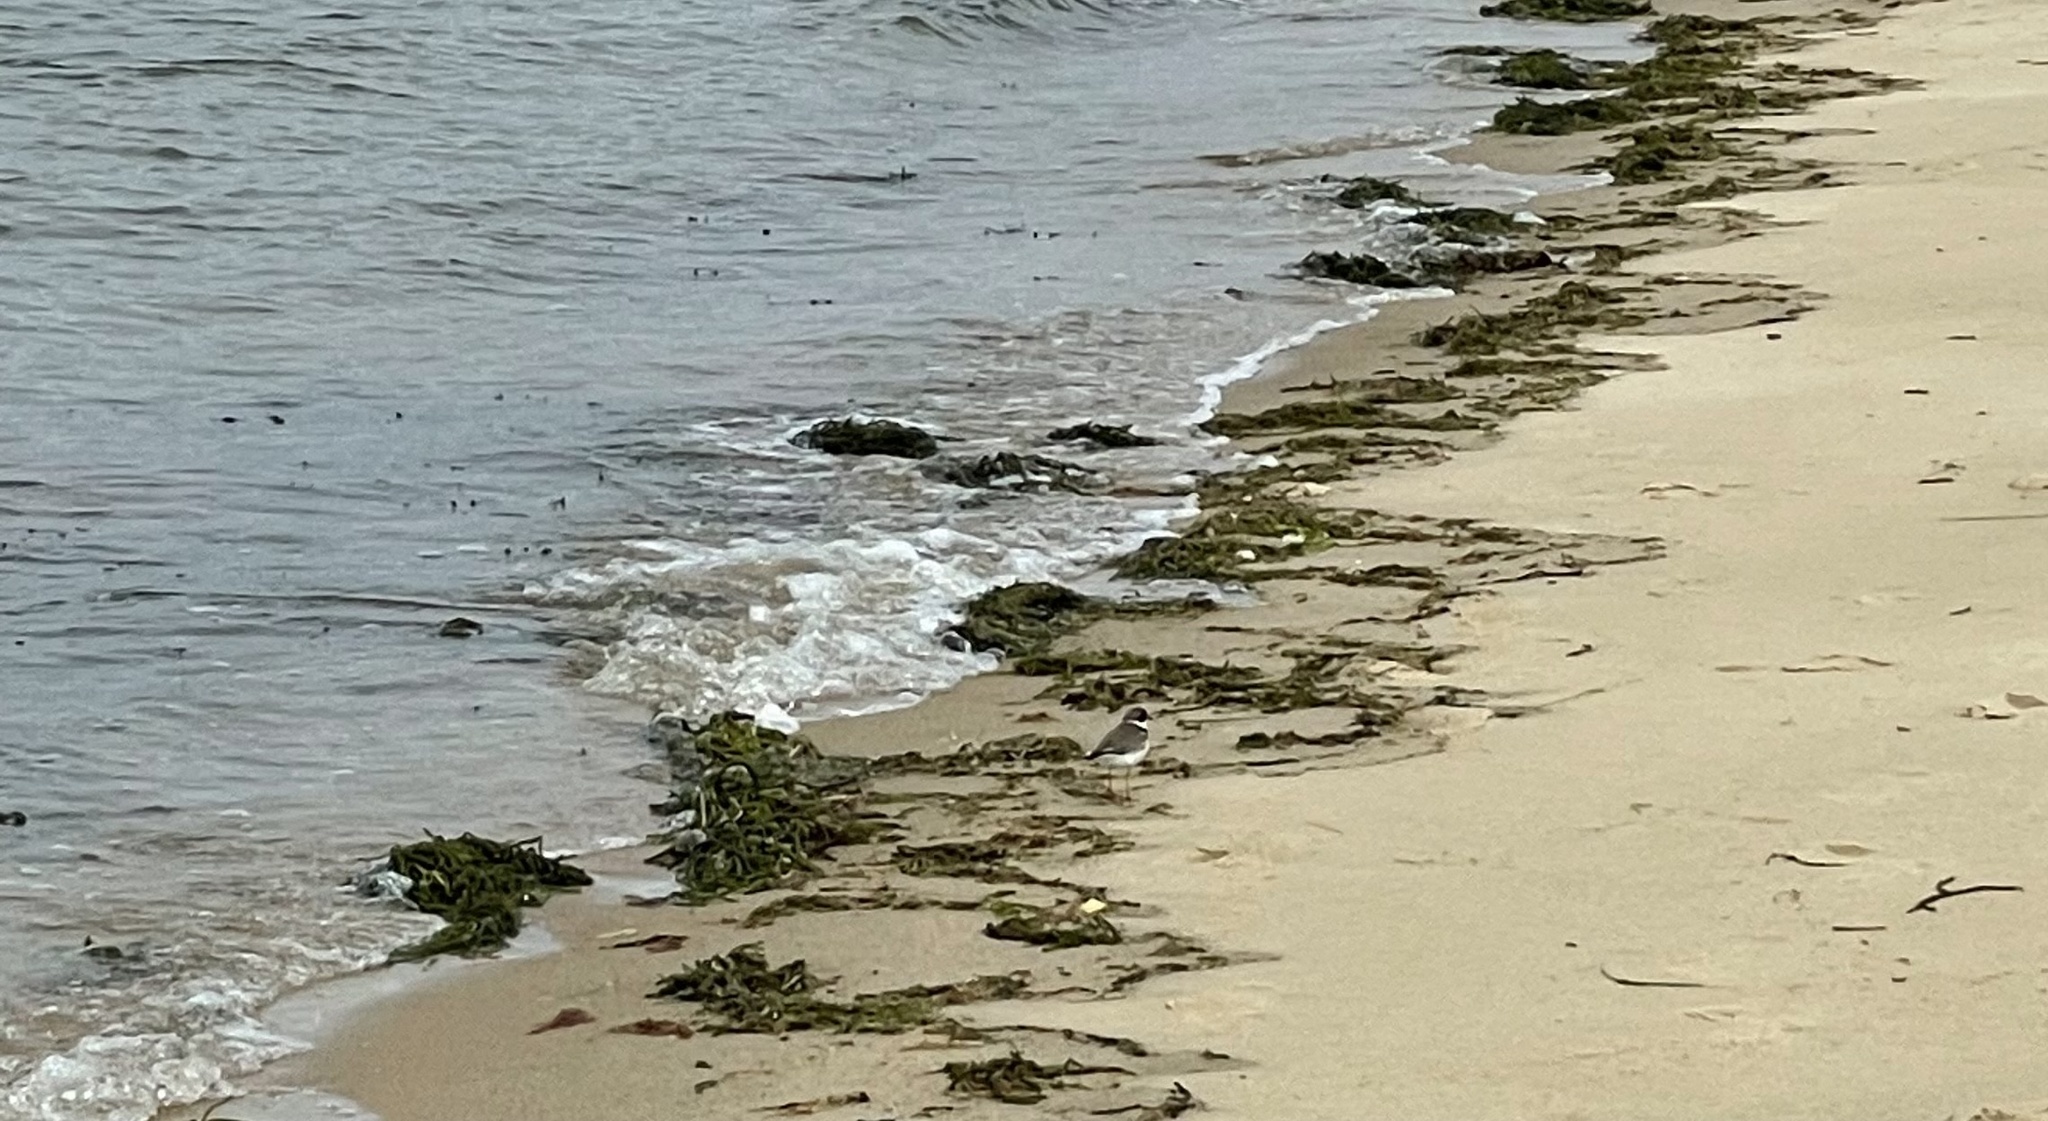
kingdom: Animalia
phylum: Chordata
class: Aves
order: Charadriiformes
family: Charadriidae
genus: Charadrius
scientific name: Charadrius semipalmatus
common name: Semipalmated plover
